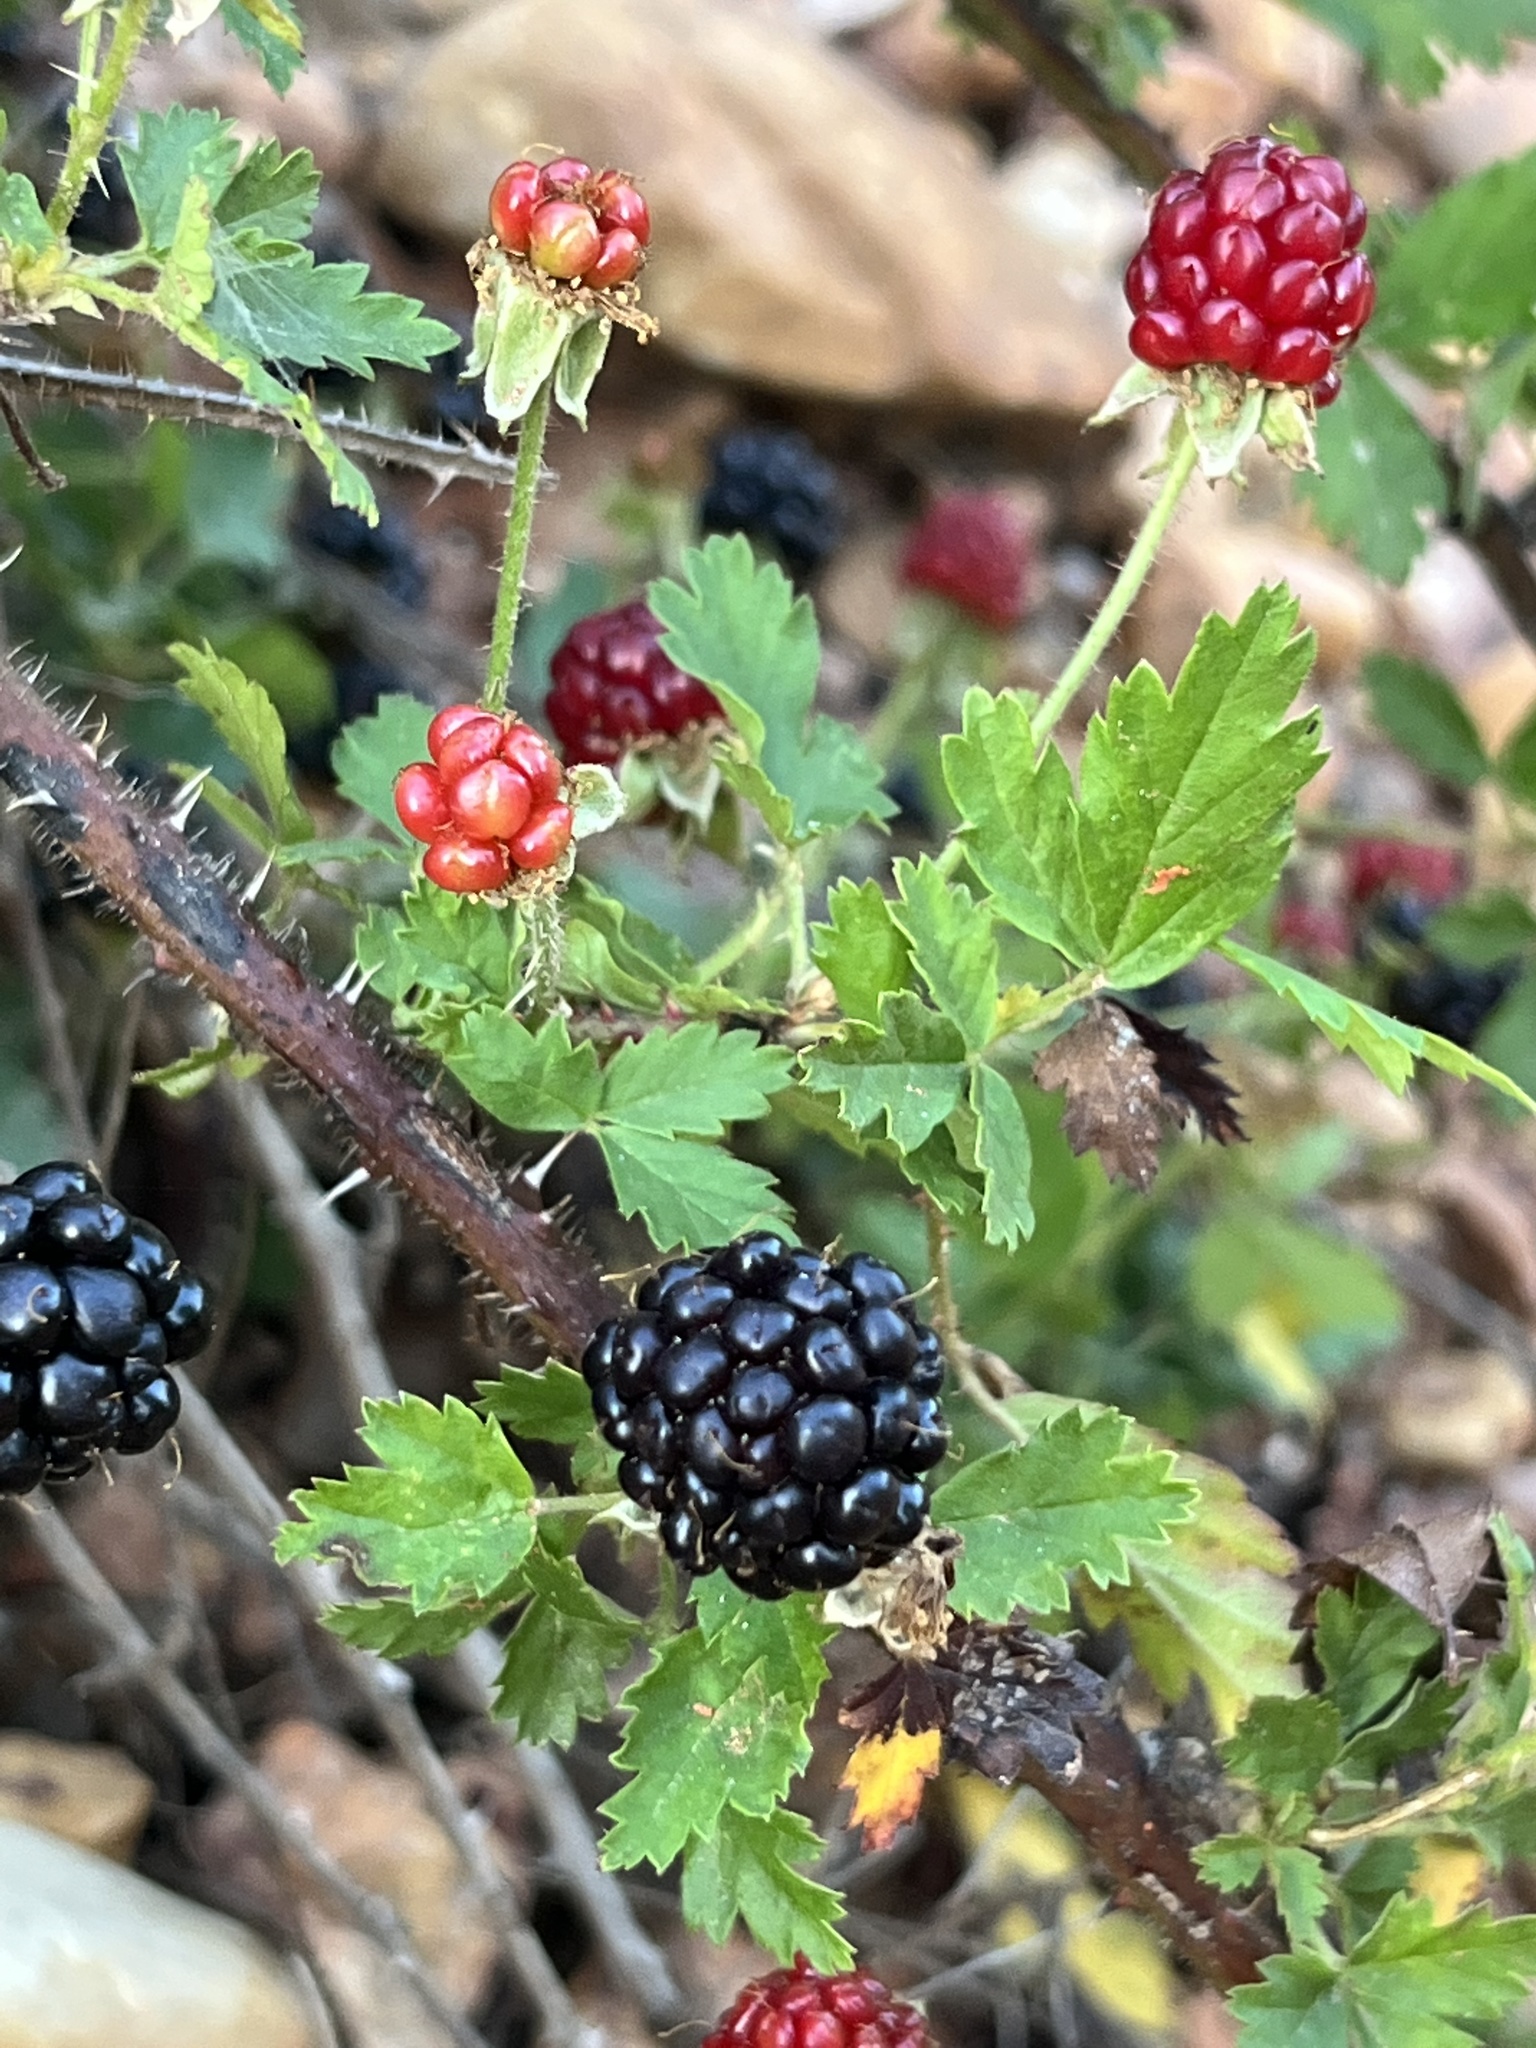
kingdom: Plantae
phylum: Tracheophyta
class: Magnoliopsida
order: Rosales
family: Rosaceae
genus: Rubus
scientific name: Rubus trivialis
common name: Southern dewberry
